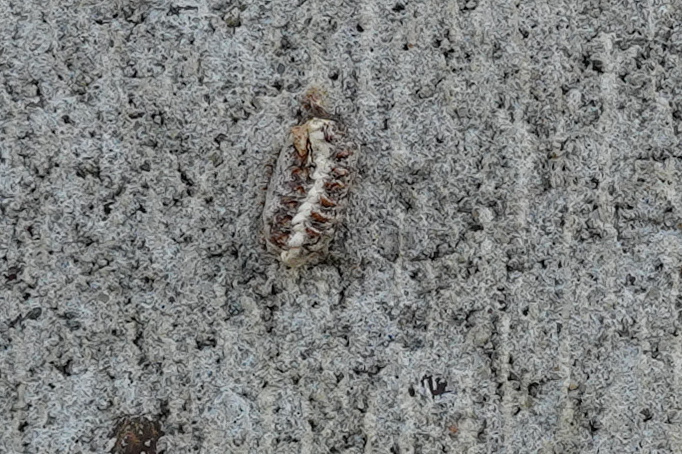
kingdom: Animalia
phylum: Arthropoda
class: Insecta
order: Mantodea
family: Mantidae
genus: Orthodera
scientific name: Orthodera novaezealandiae
